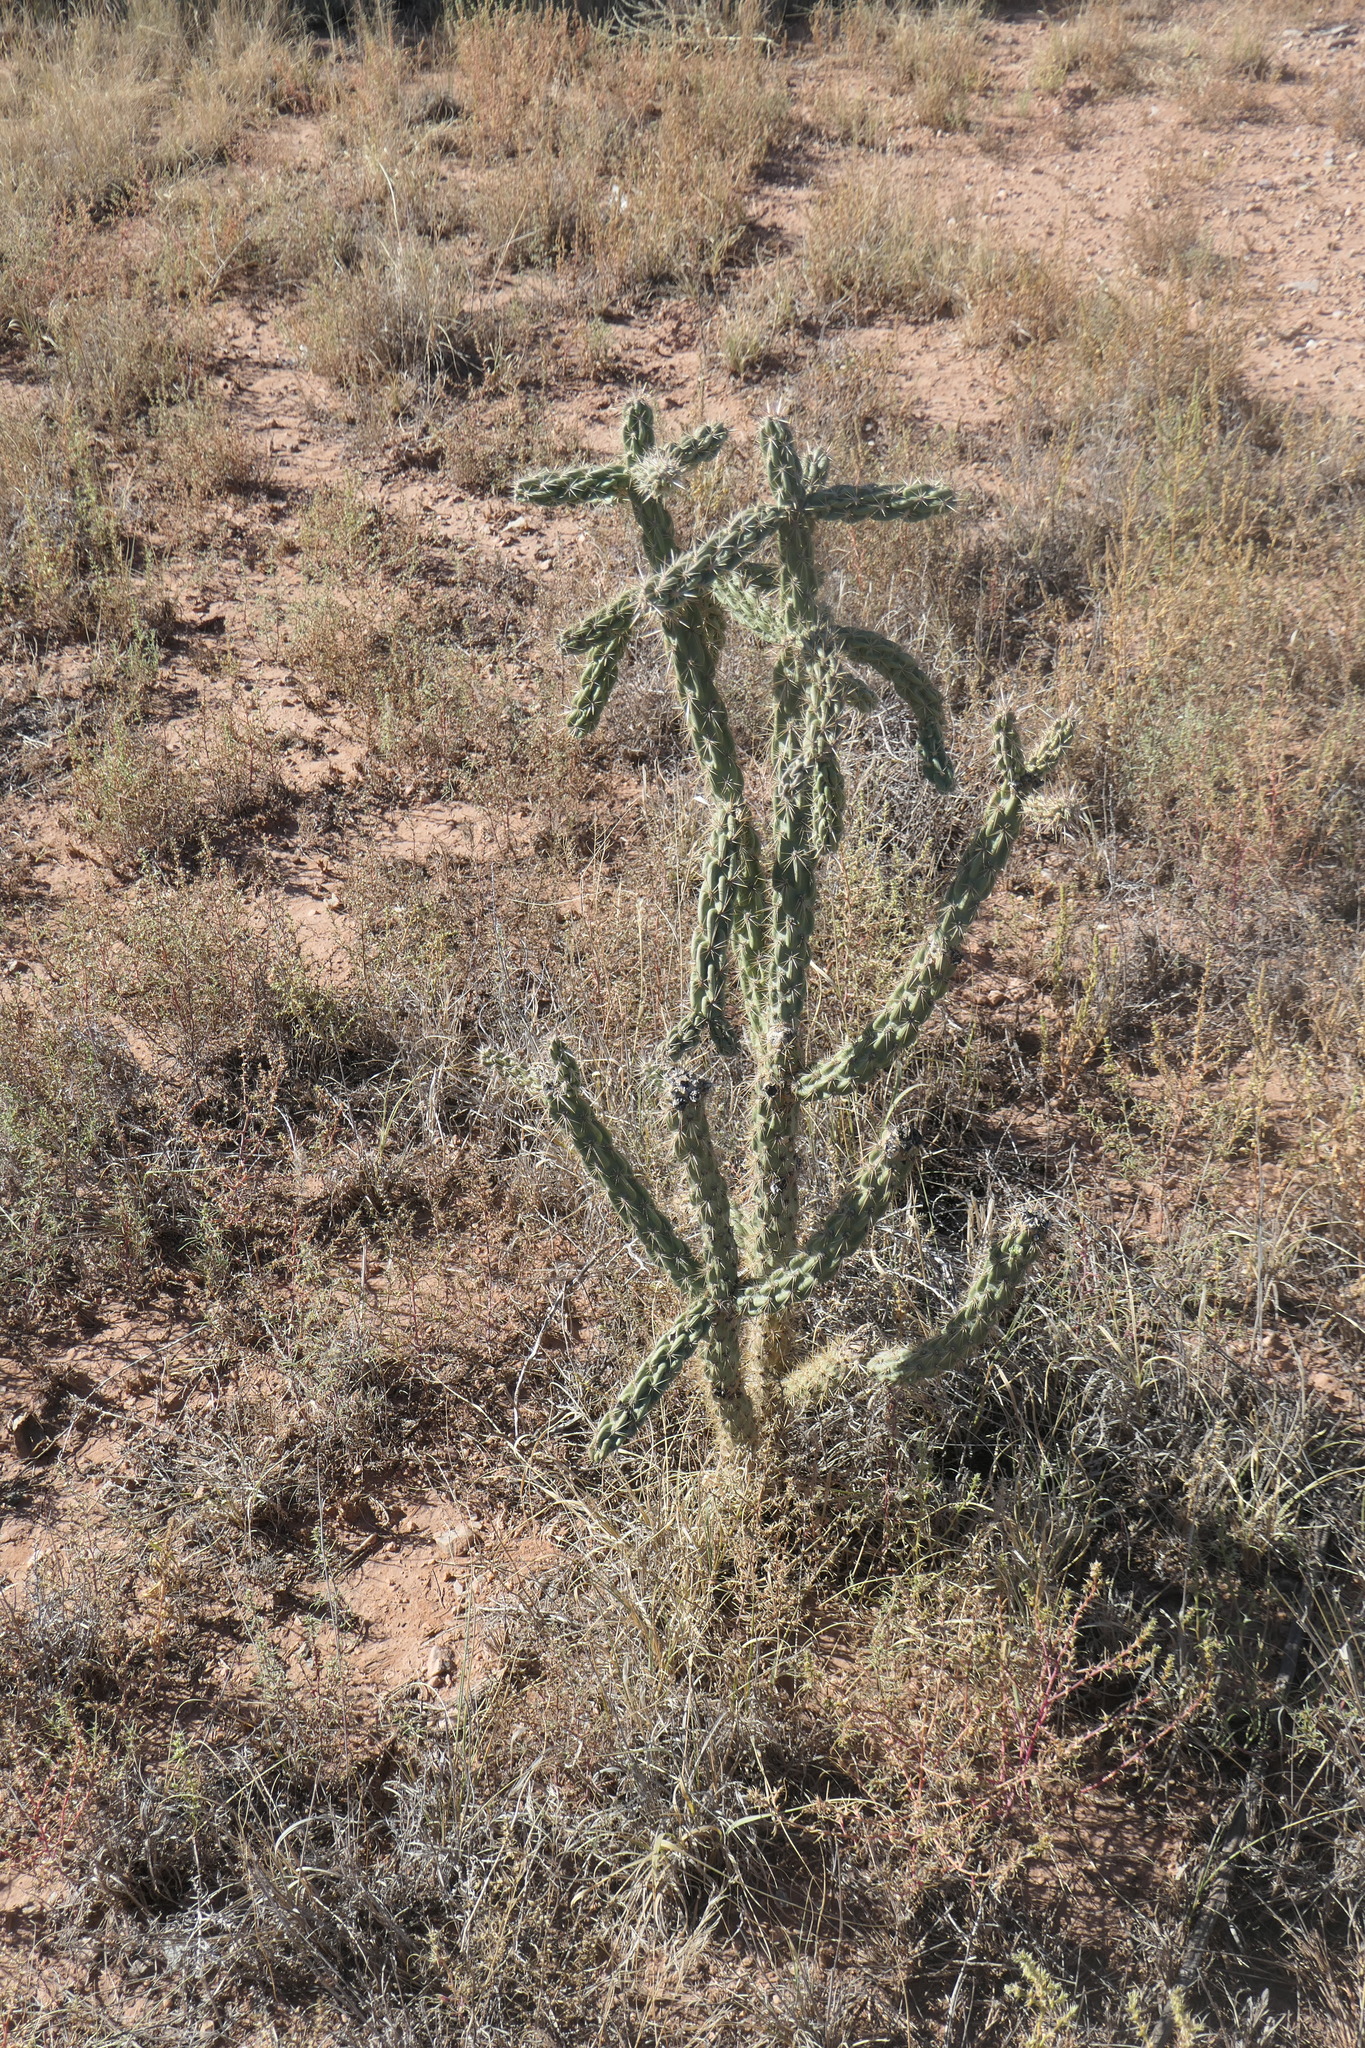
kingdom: Plantae
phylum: Tracheophyta
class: Magnoliopsida
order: Caryophyllales
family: Cactaceae
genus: Cylindropuntia
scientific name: Cylindropuntia imbricata
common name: Candelabrum cactus
